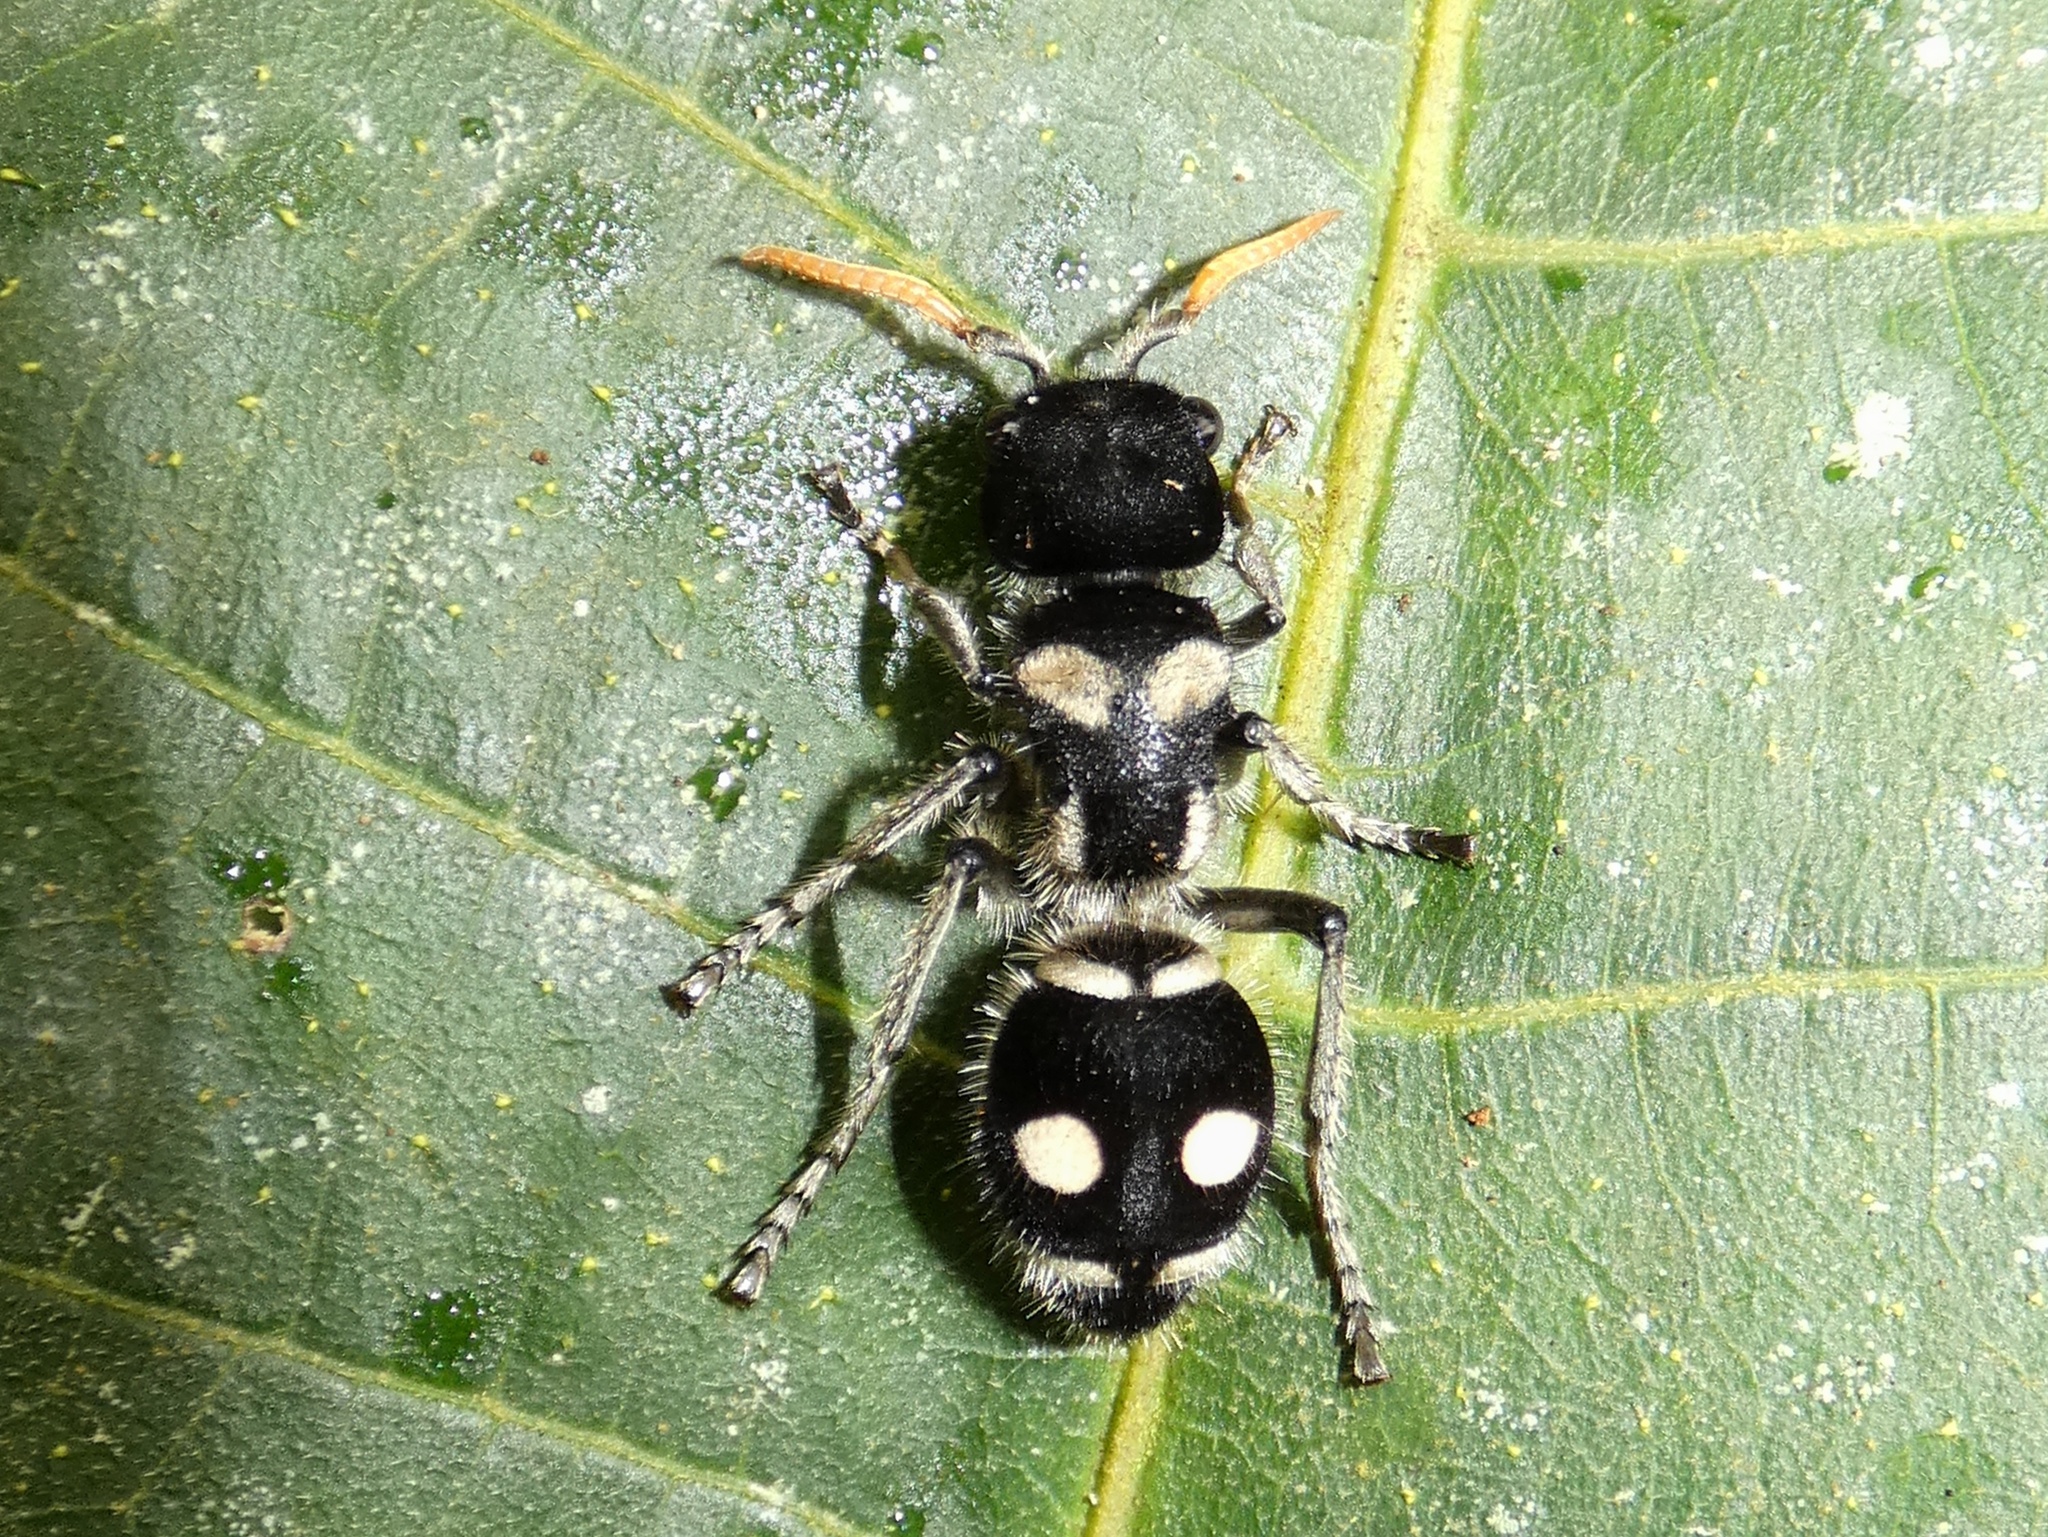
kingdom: Animalia
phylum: Arthropoda
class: Insecta
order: Hymenoptera
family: Mutillidae
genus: Hoplomutilla
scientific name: Hoplomutilla
